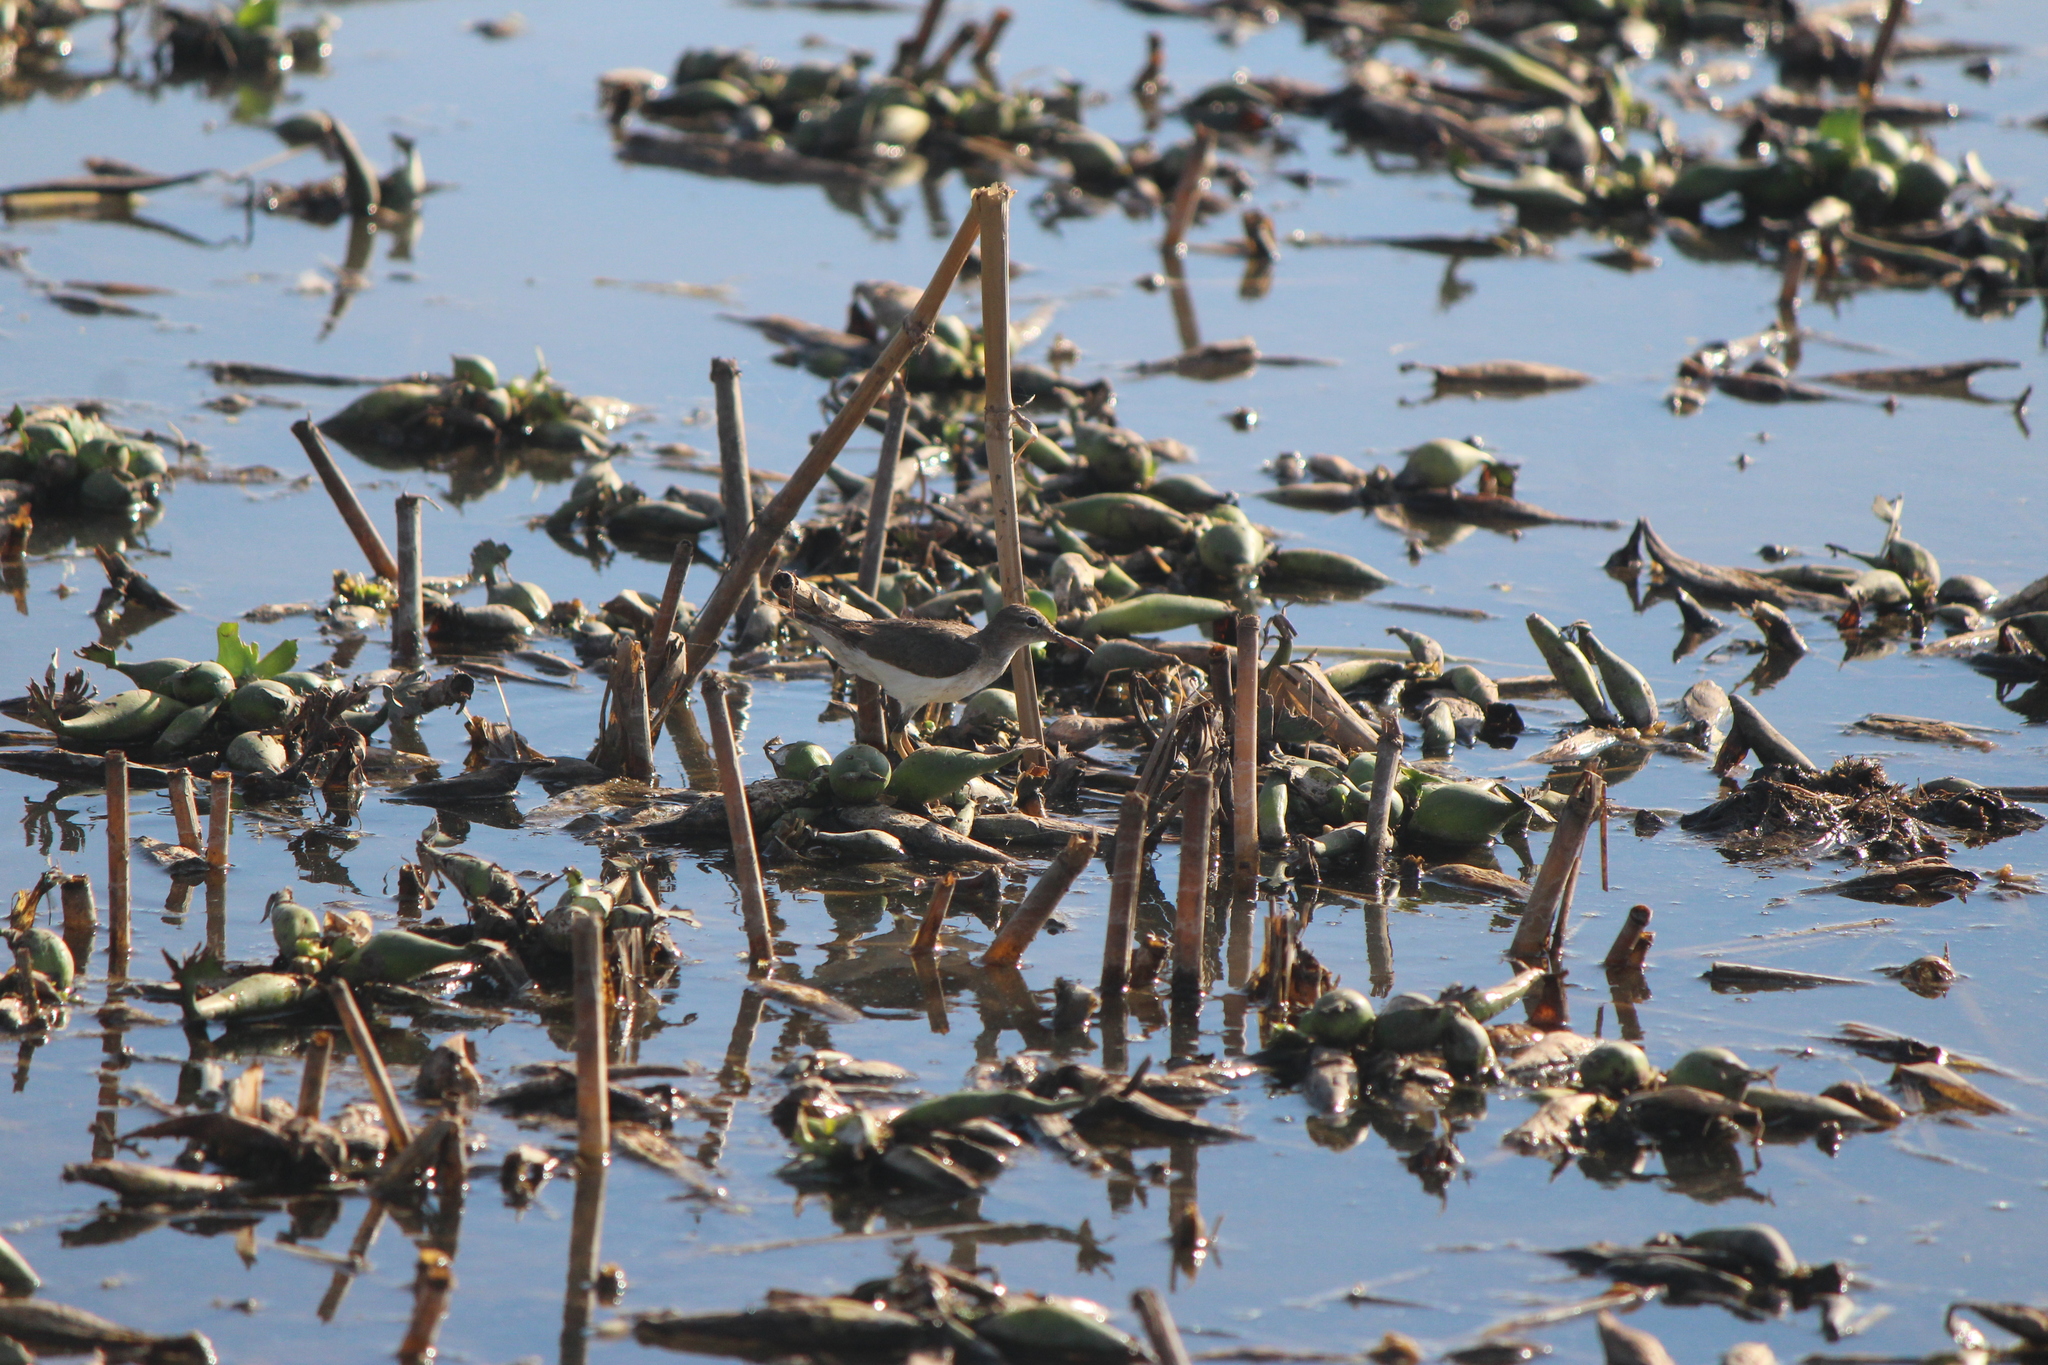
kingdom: Animalia
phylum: Chordata
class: Aves
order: Charadriiformes
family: Scolopacidae
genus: Actitis
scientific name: Actitis macularius
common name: Spotted sandpiper
